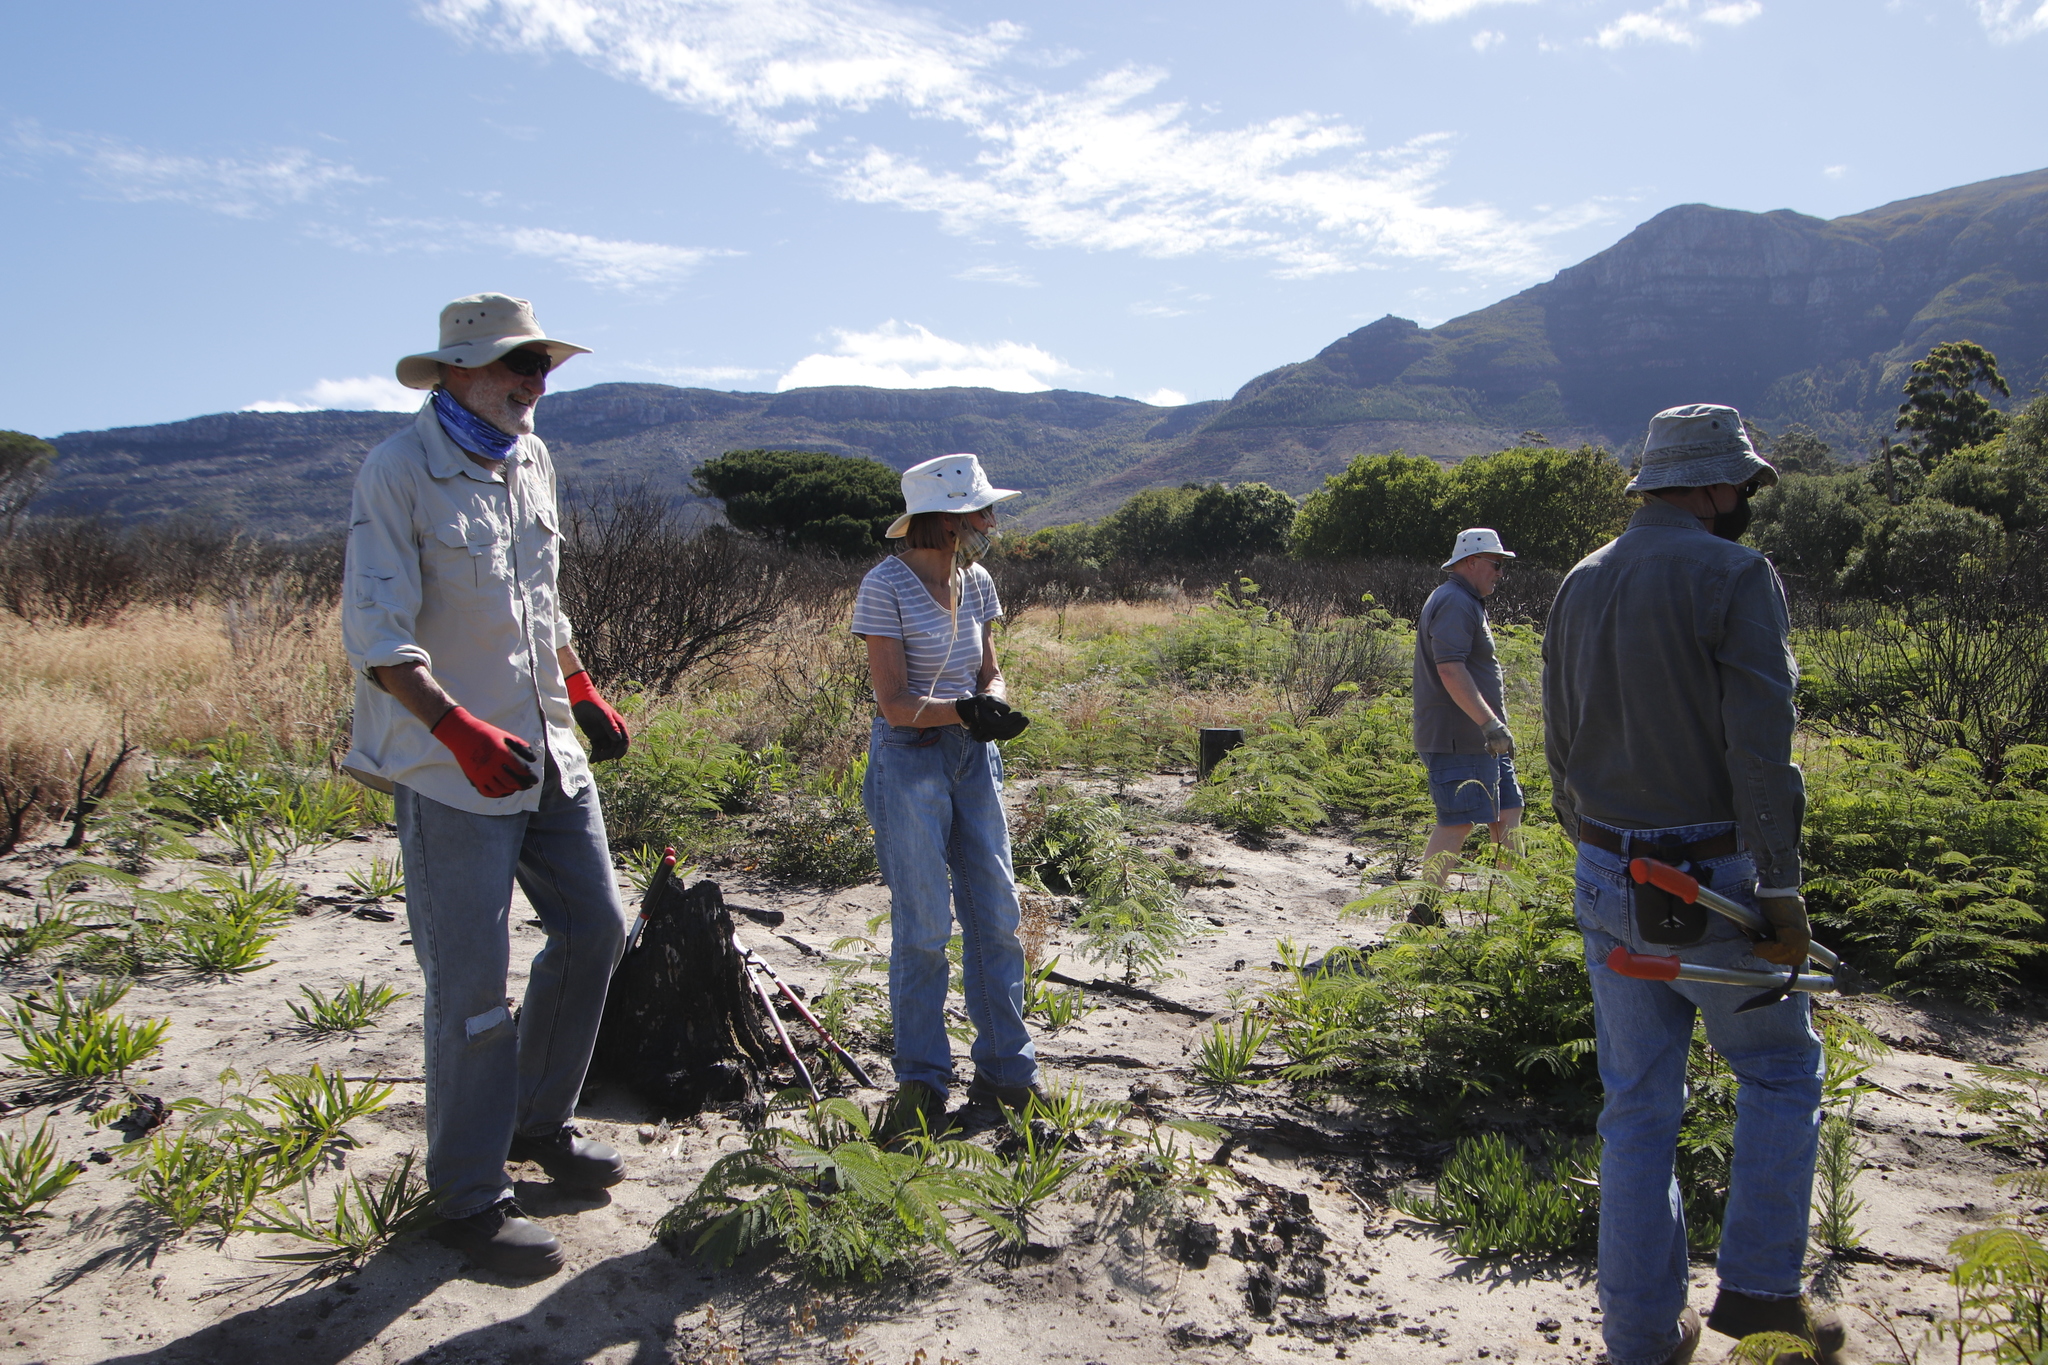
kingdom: Plantae
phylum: Tracheophyta
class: Magnoliopsida
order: Fabales
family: Fabaceae
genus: Acacia
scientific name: Acacia longifolia
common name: Sydney golden wattle
